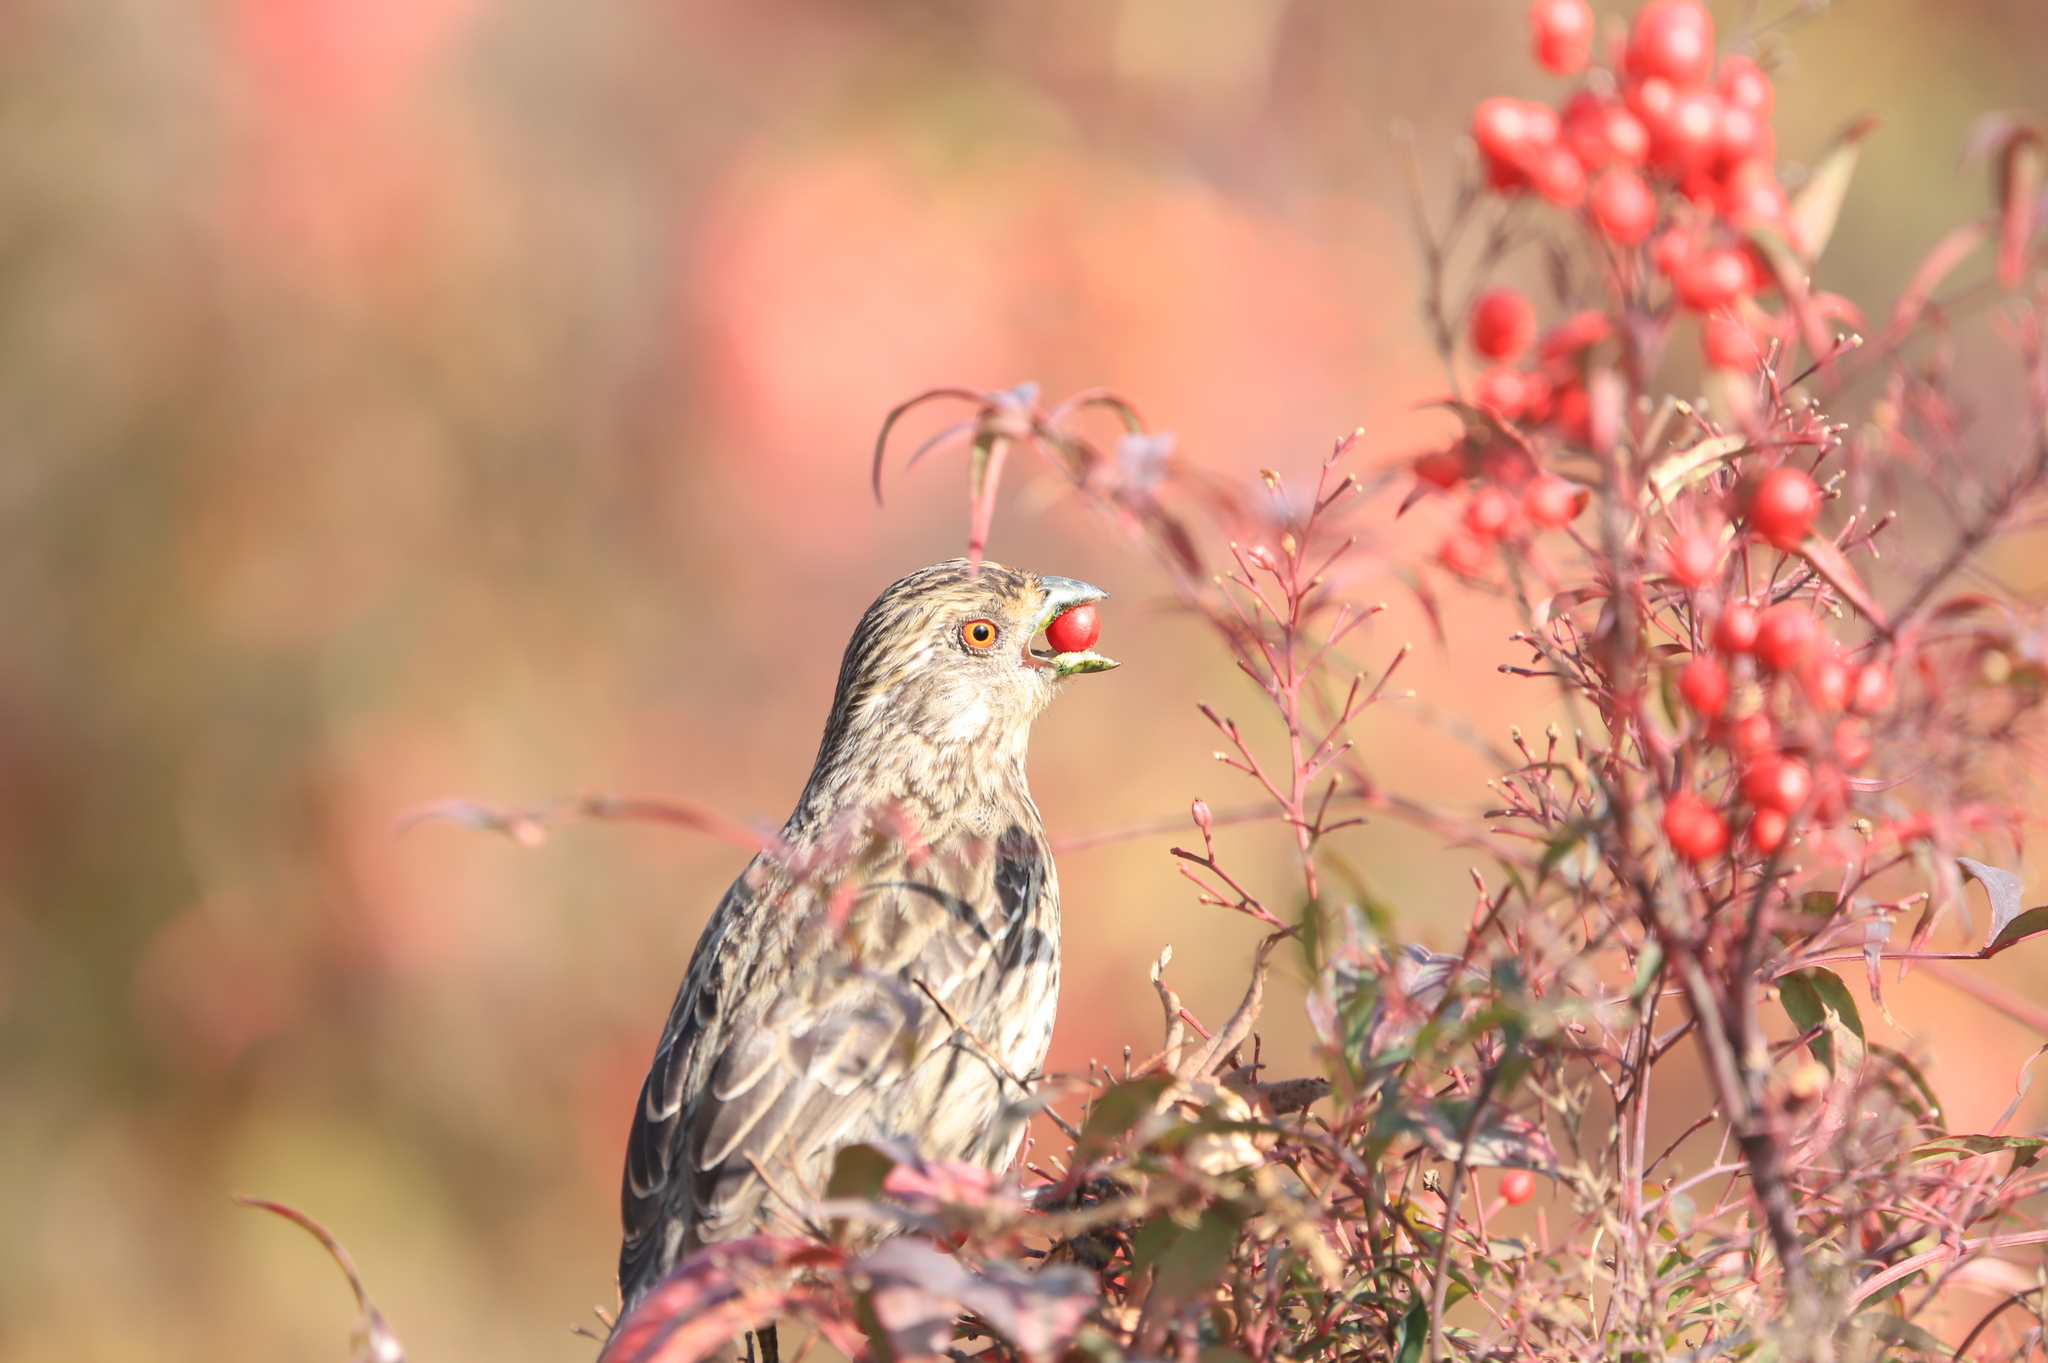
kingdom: Animalia
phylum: Chordata
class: Aves
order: Passeriformes
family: Cotingidae
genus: Phytotoma
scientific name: Phytotoma rara
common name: Rufous-tailed plantcutter
